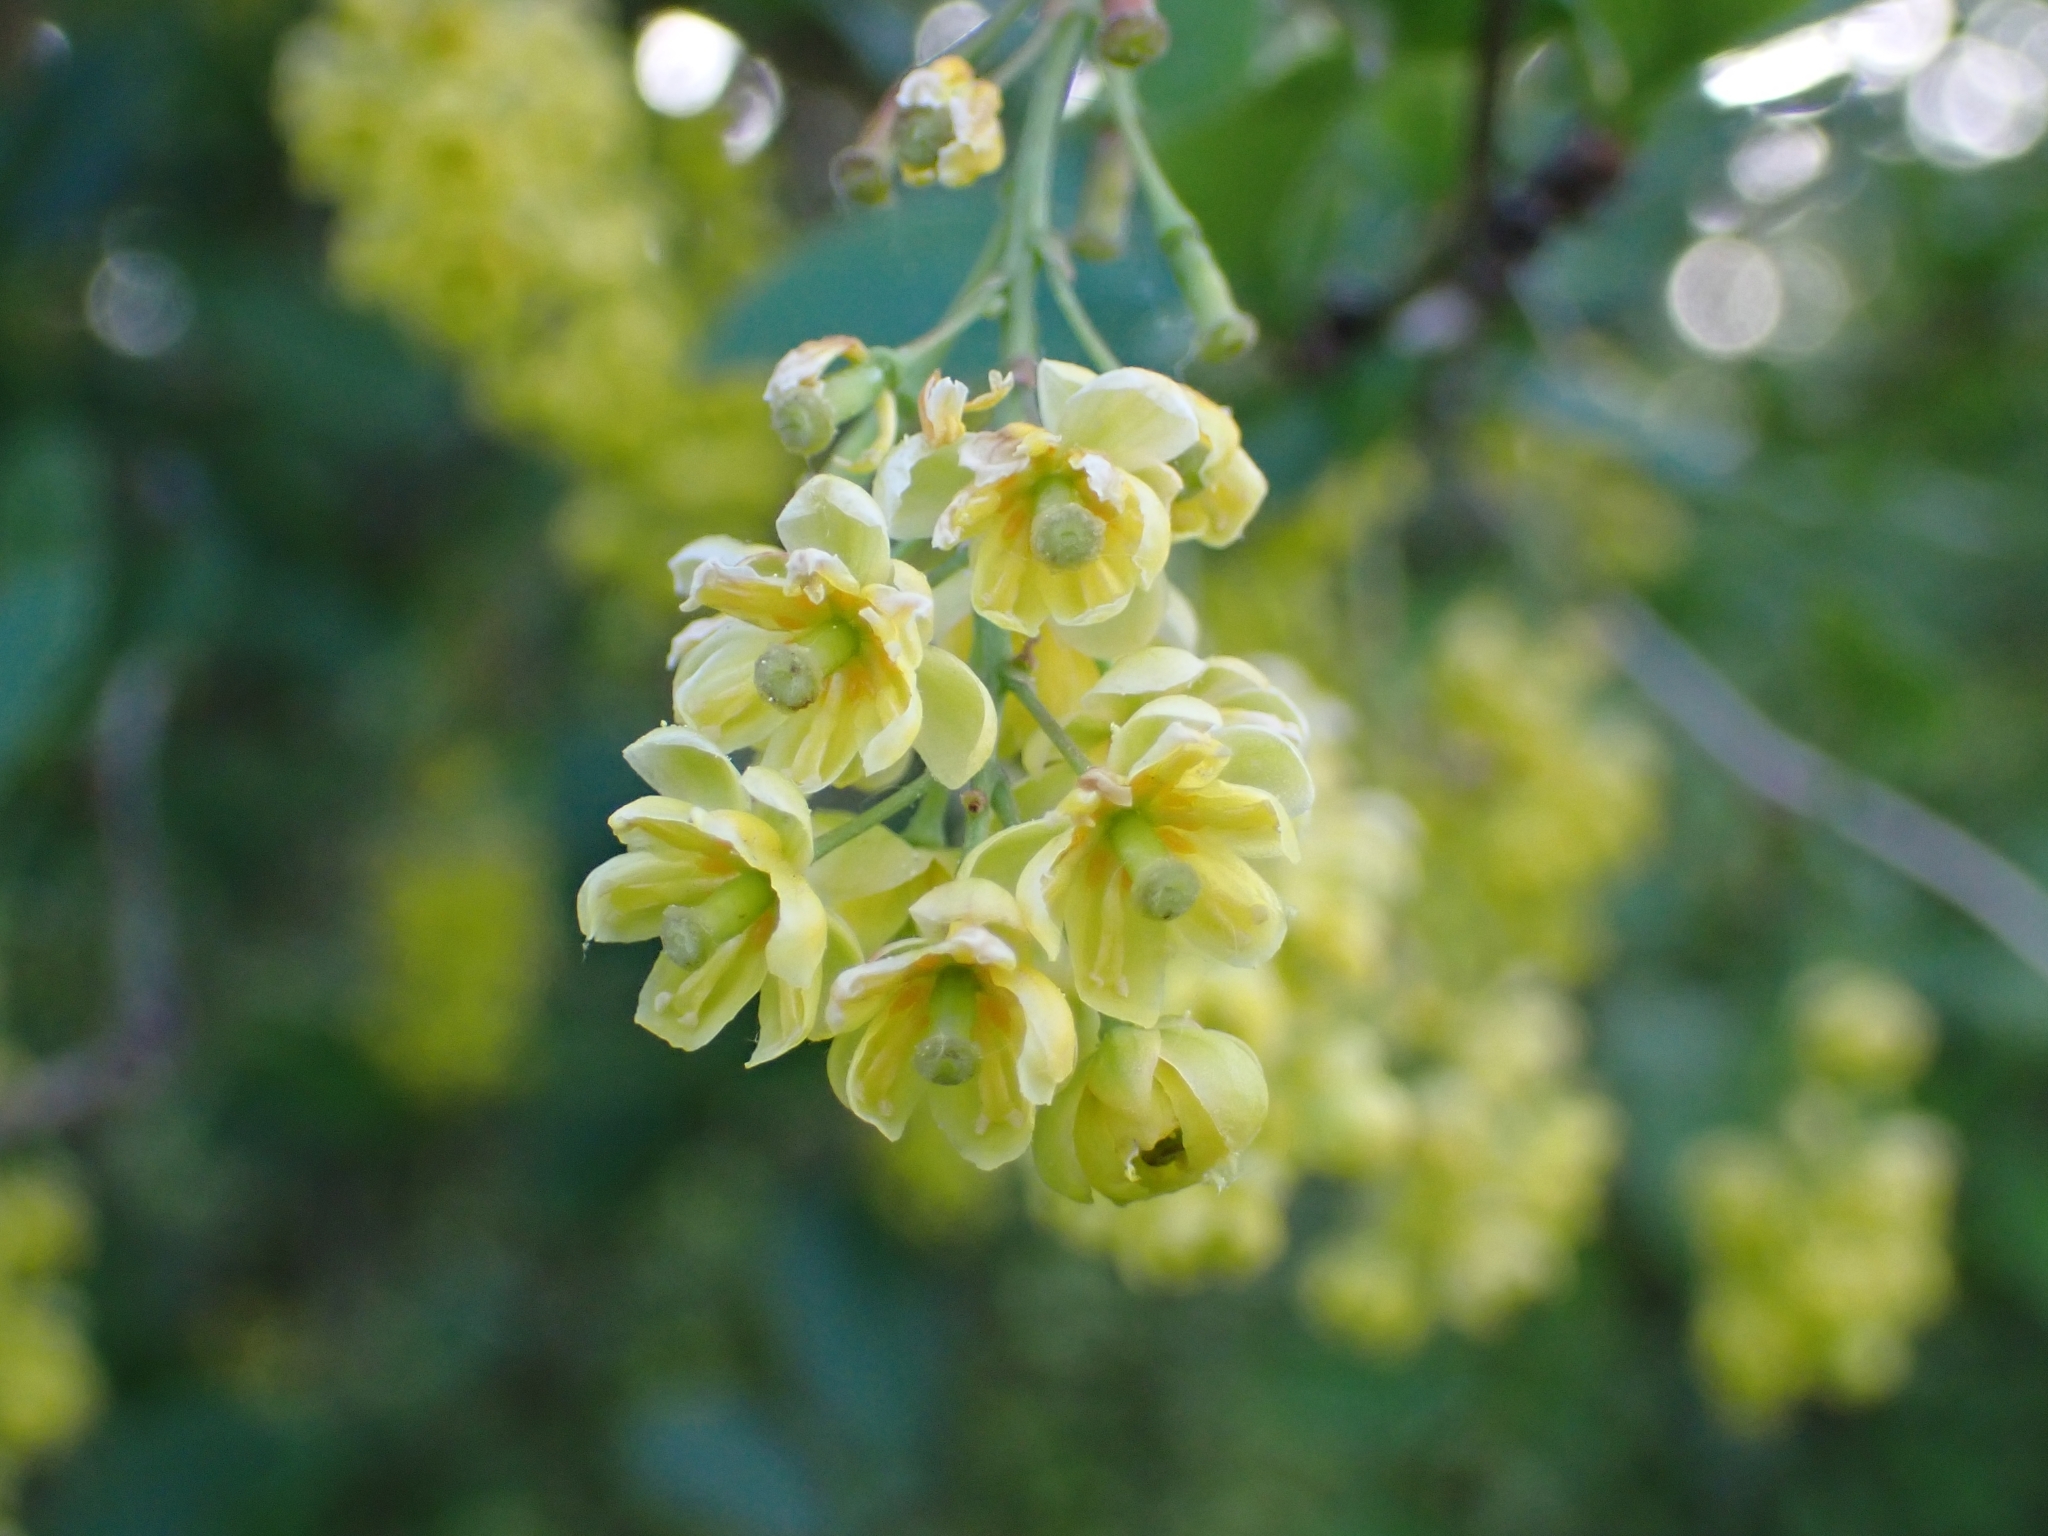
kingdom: Plantae
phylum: Tracheophyta
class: Magnoliopsida
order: Ranunculales
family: Berberidaceae
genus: Berberis
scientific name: Berberis vulgaris
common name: Barberry
